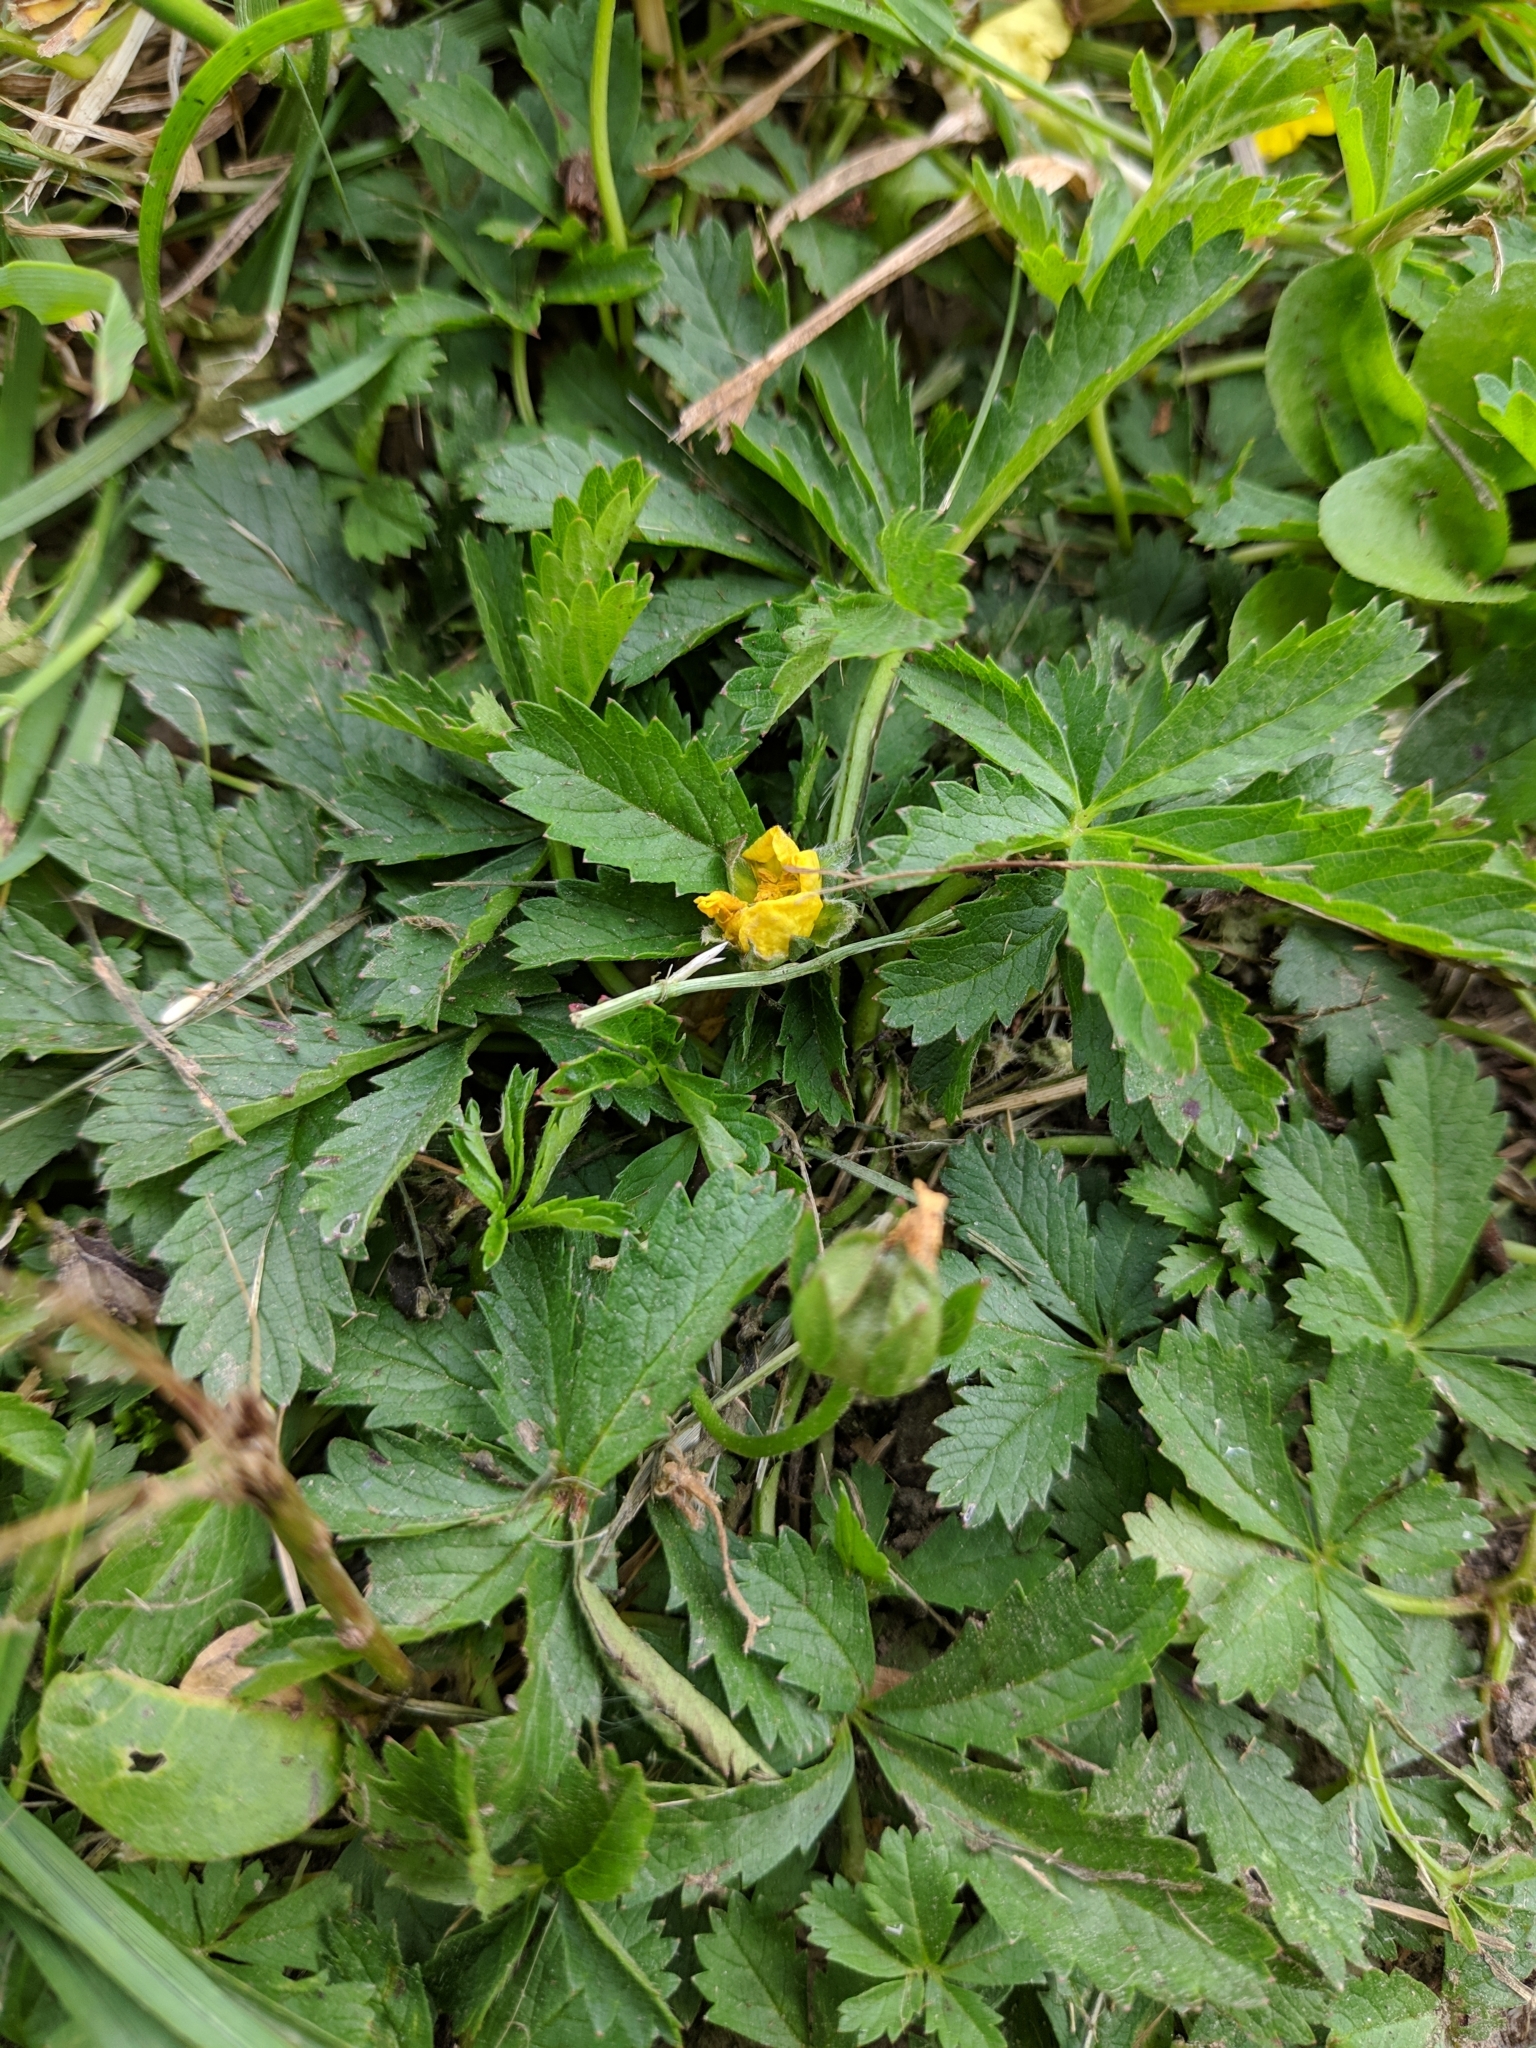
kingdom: Plantae
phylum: Tracheophyta
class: Magnoliopsida
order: Rosales
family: Rosaceae
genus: Potentilla
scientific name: Potentilla erecta
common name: Tormentil
